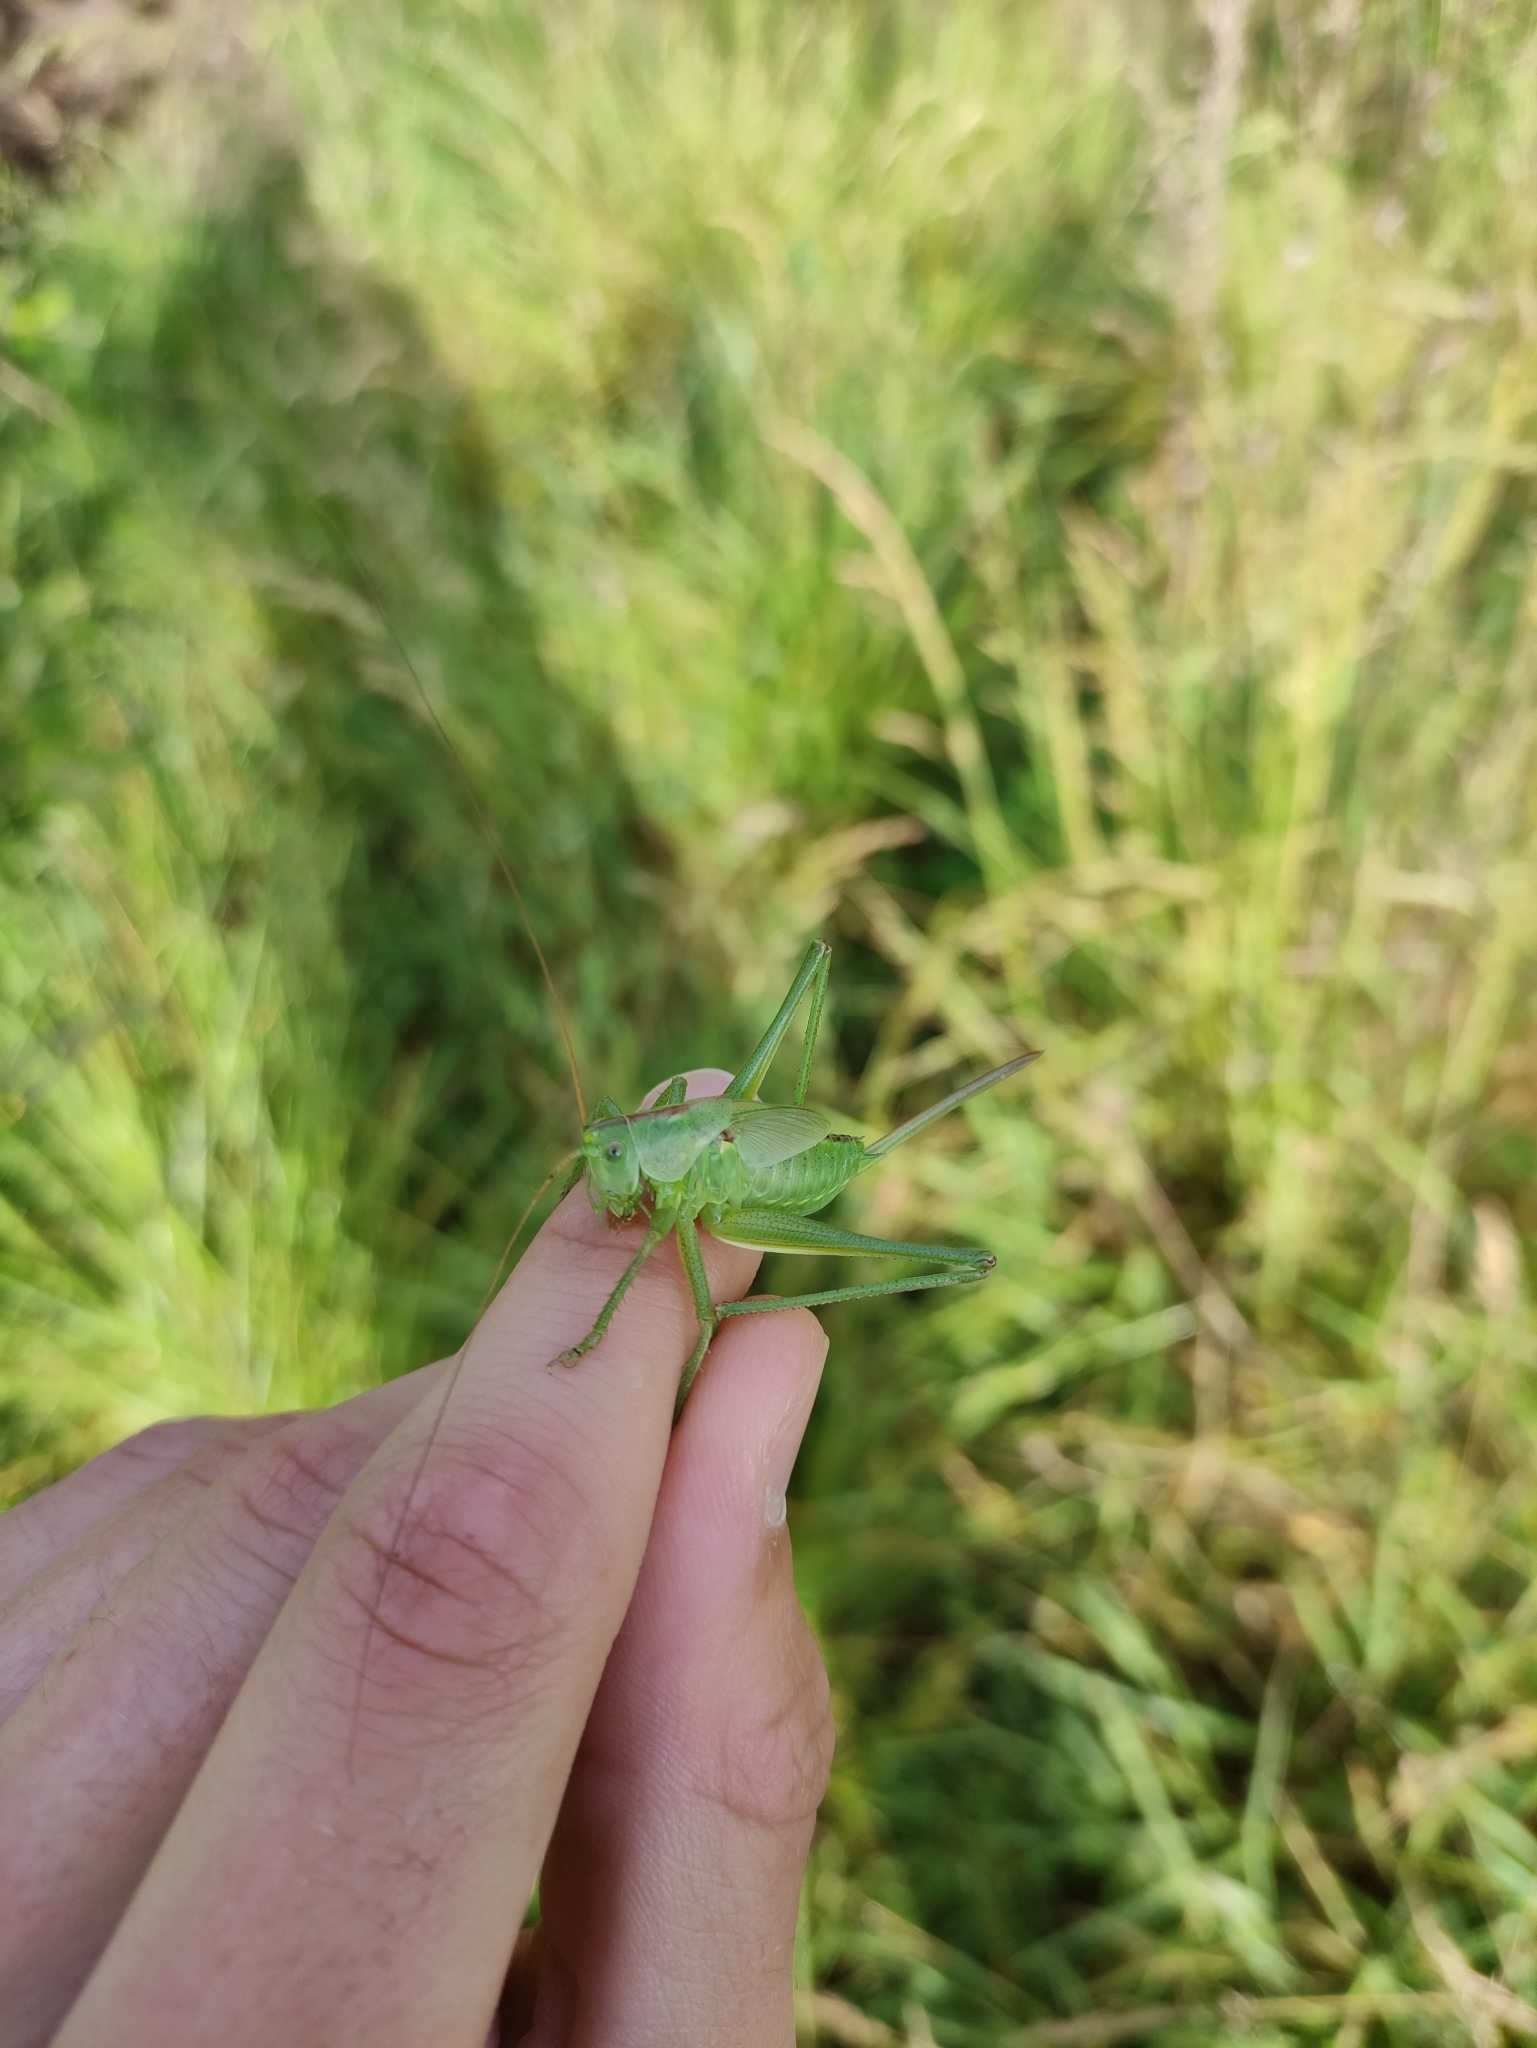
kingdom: Animalia
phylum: Arthropoda
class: Insecta
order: Orthoptera
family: Tettigoniidae
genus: Tettigonia
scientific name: Tettigonia viridissima
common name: Great green bush-cricket
